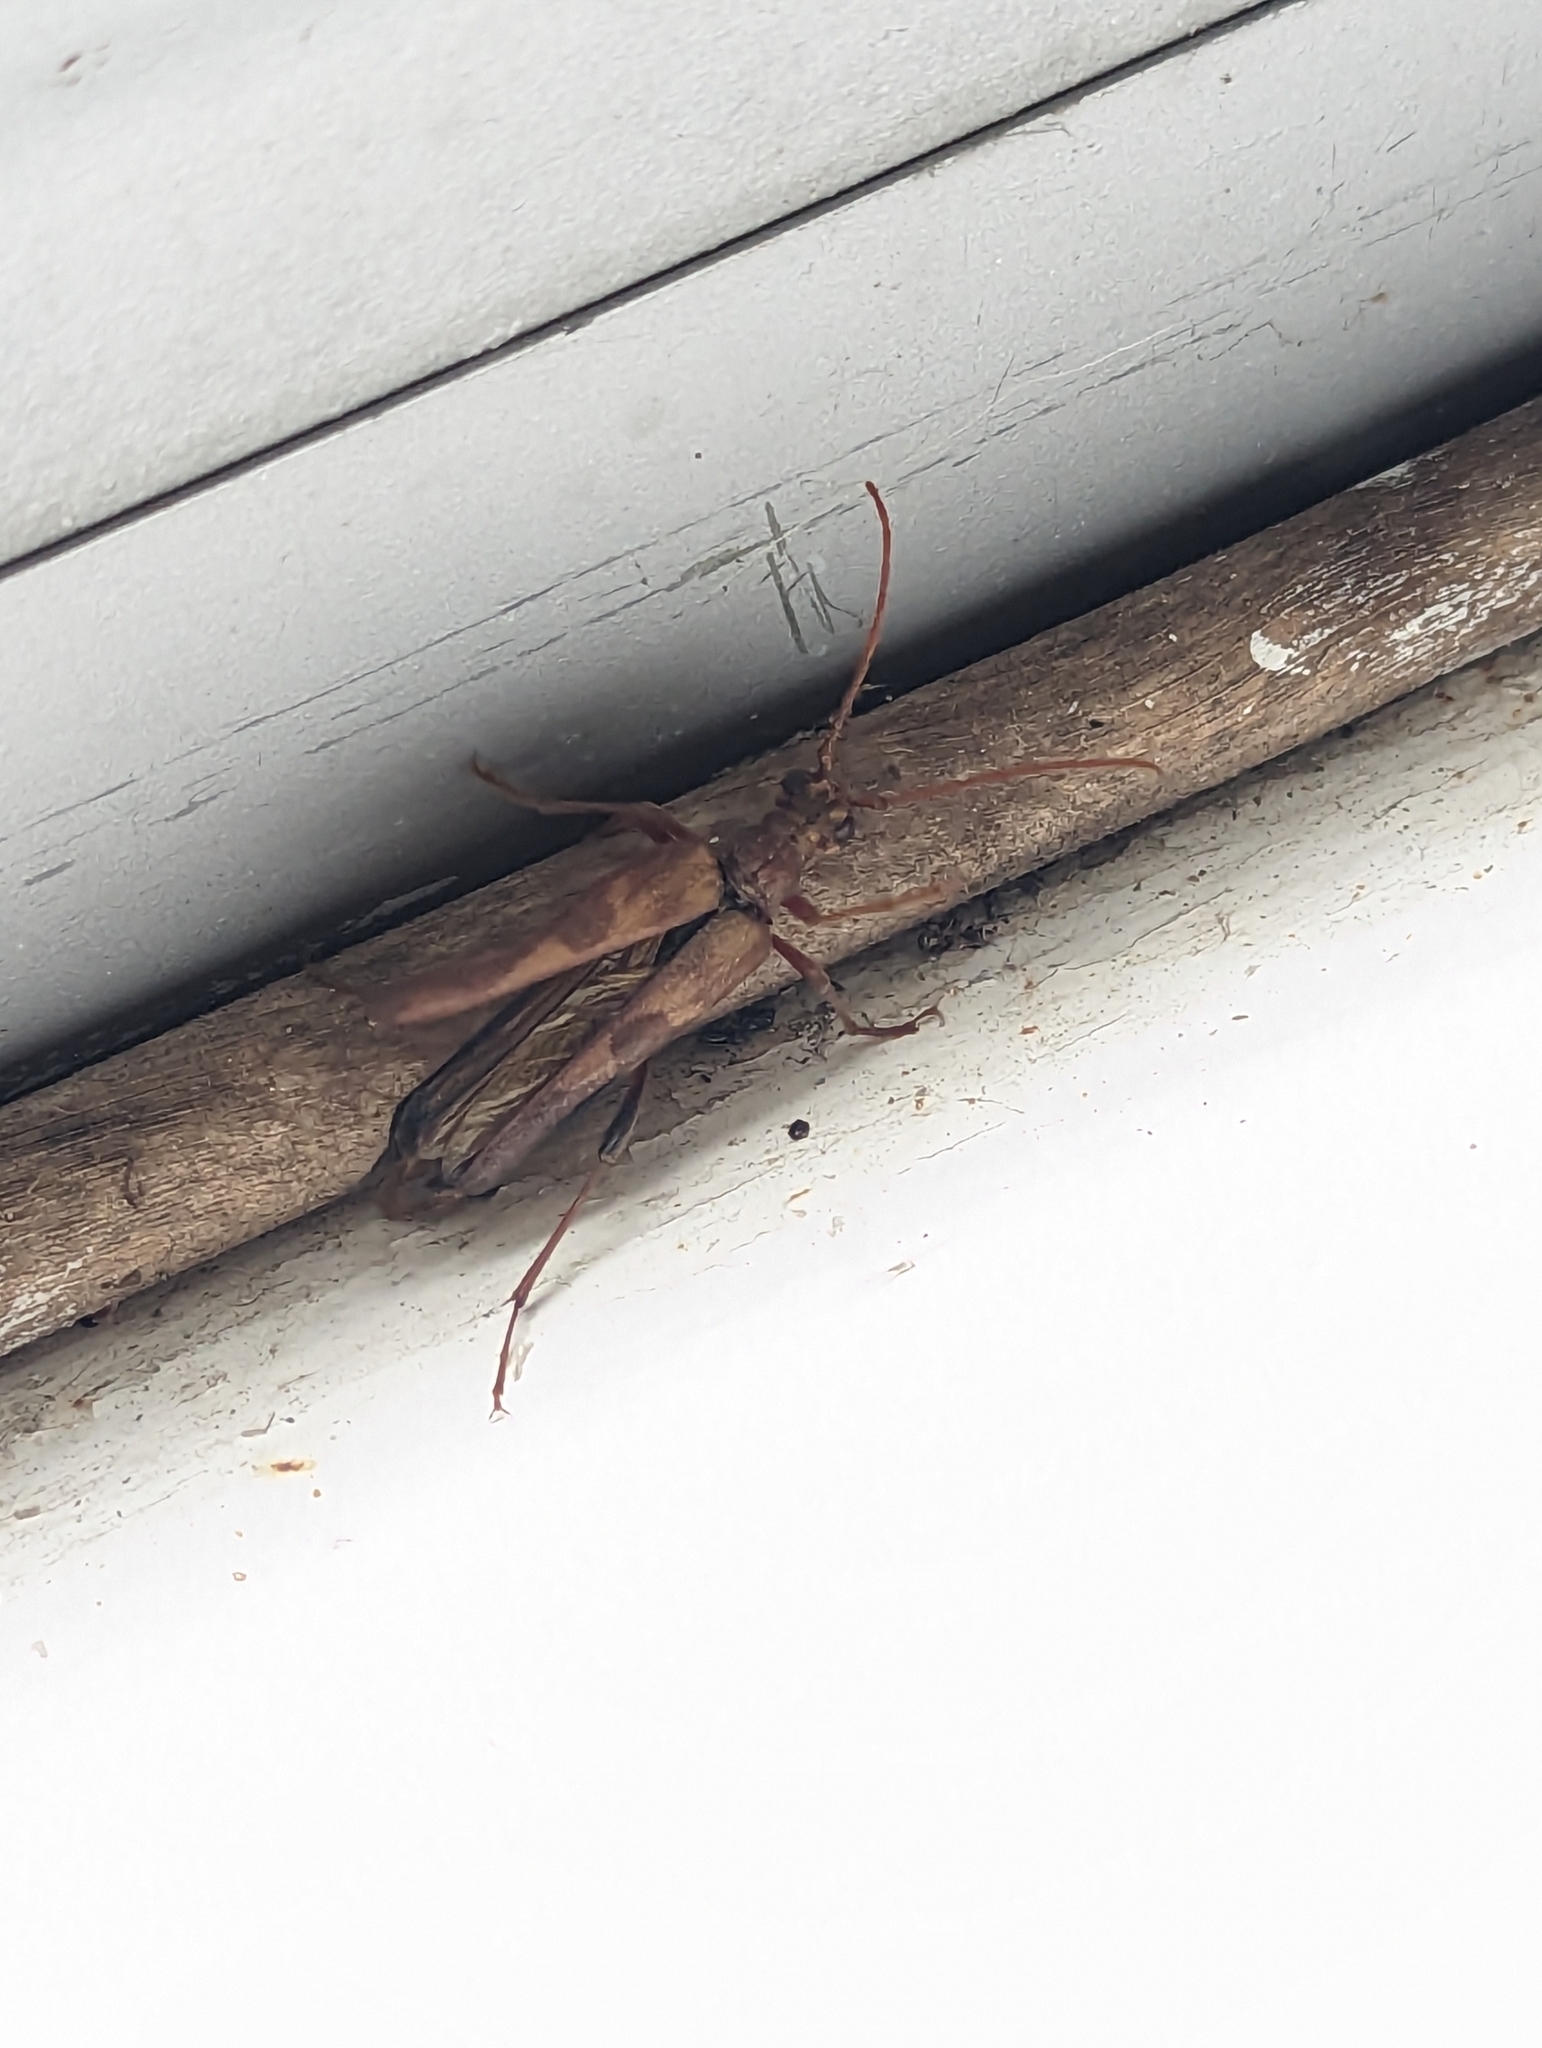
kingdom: Animalia
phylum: Arthropoda
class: Insecta
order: Coleoptera
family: Cerambycidae
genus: Bellamira
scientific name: Bellamira scalaris
